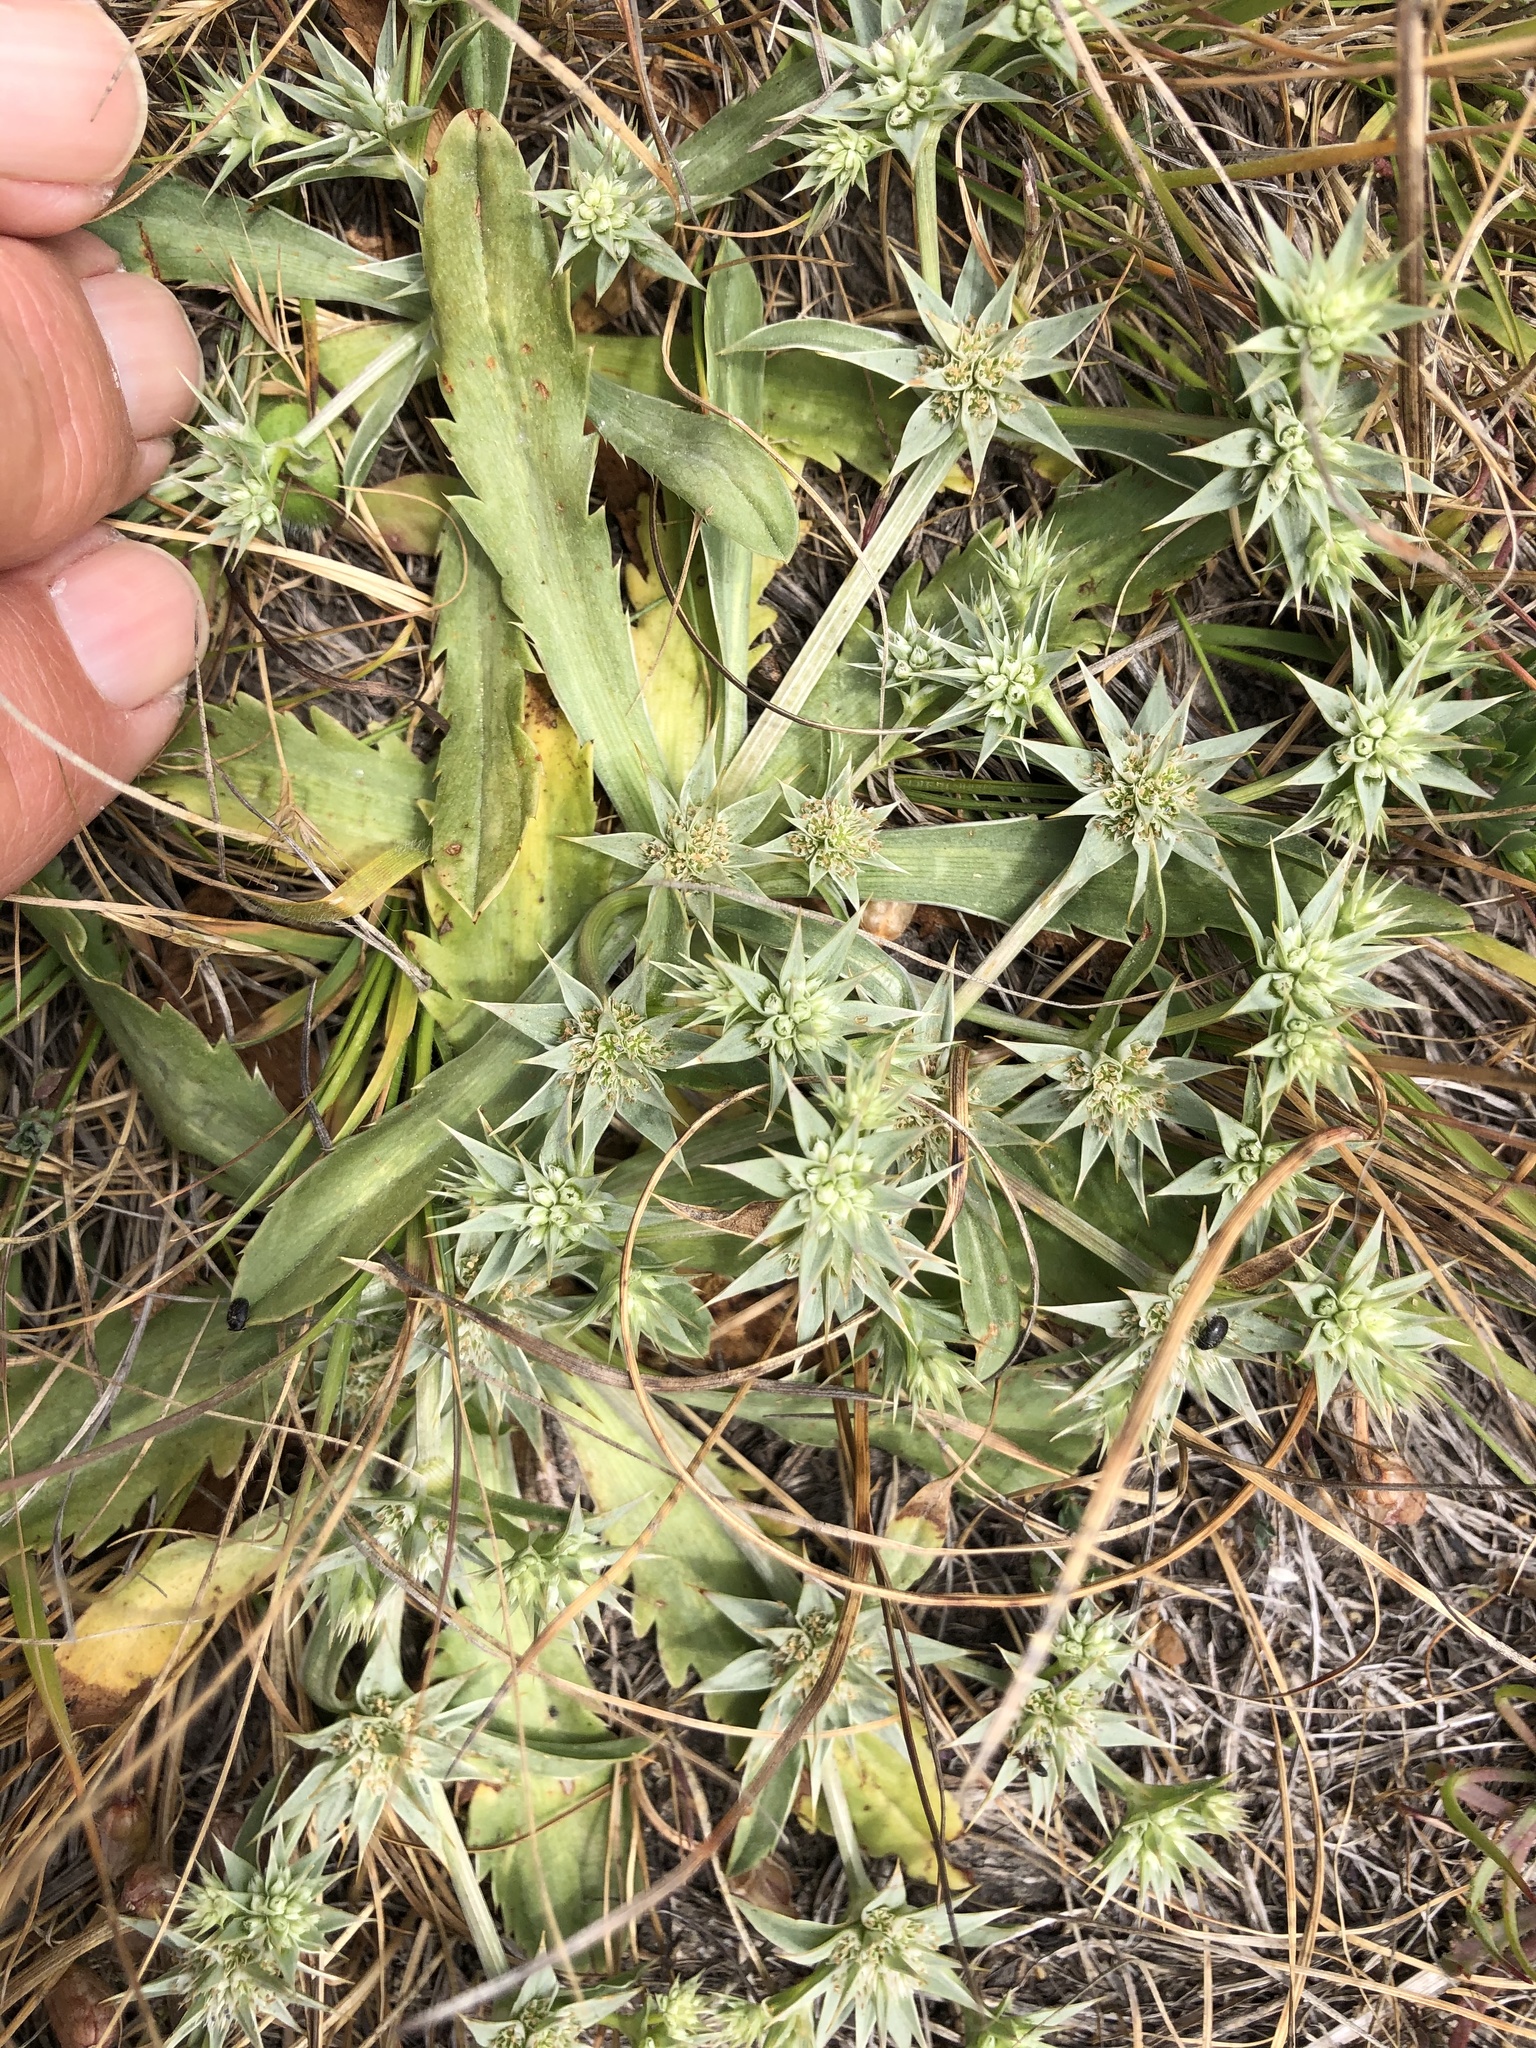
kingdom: Plantae
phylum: Tracheophyta
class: Magnoliopsida
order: Apiales
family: Apiaceae
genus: Eryngium
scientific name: Eryngium armatum
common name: Coyote thistle
